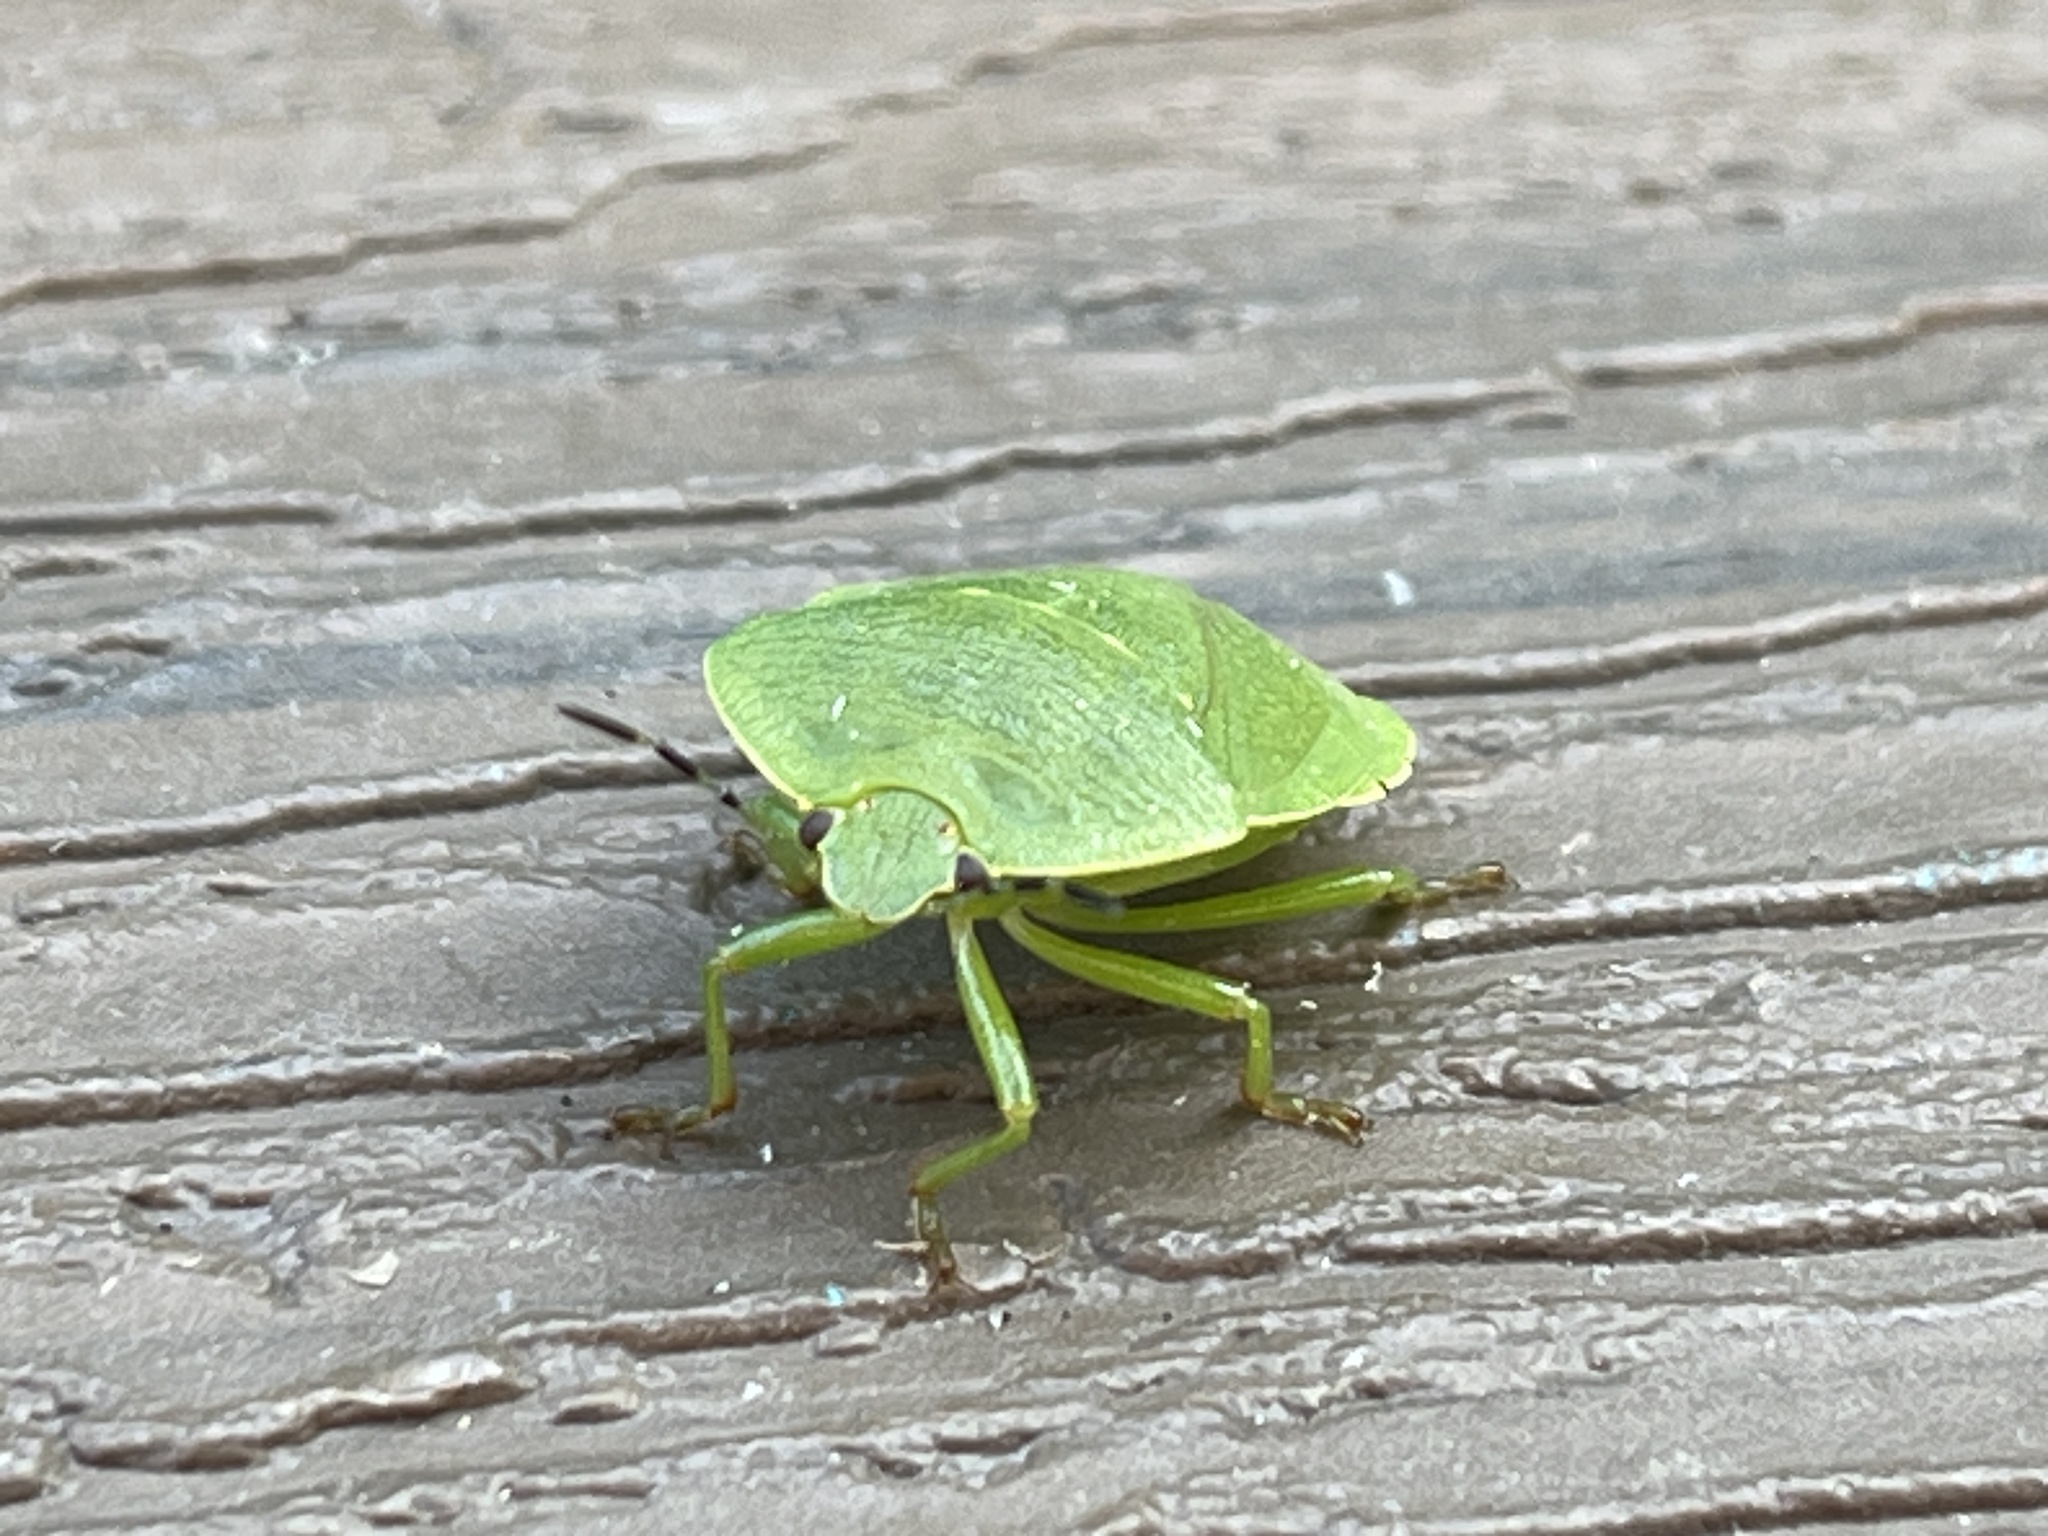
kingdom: Animalia
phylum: Arthropoda
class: Insecta
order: Hemiptera
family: Pentatomidae
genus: Chinavia
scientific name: Chinavia
